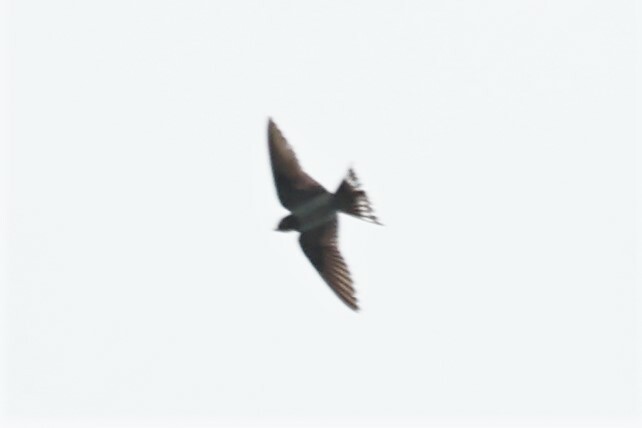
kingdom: Animalia
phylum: Chordata
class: Aves
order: Passeriformes
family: Hirundinidae
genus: Hirundo
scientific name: Hirundo rustica
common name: Barn swallow
